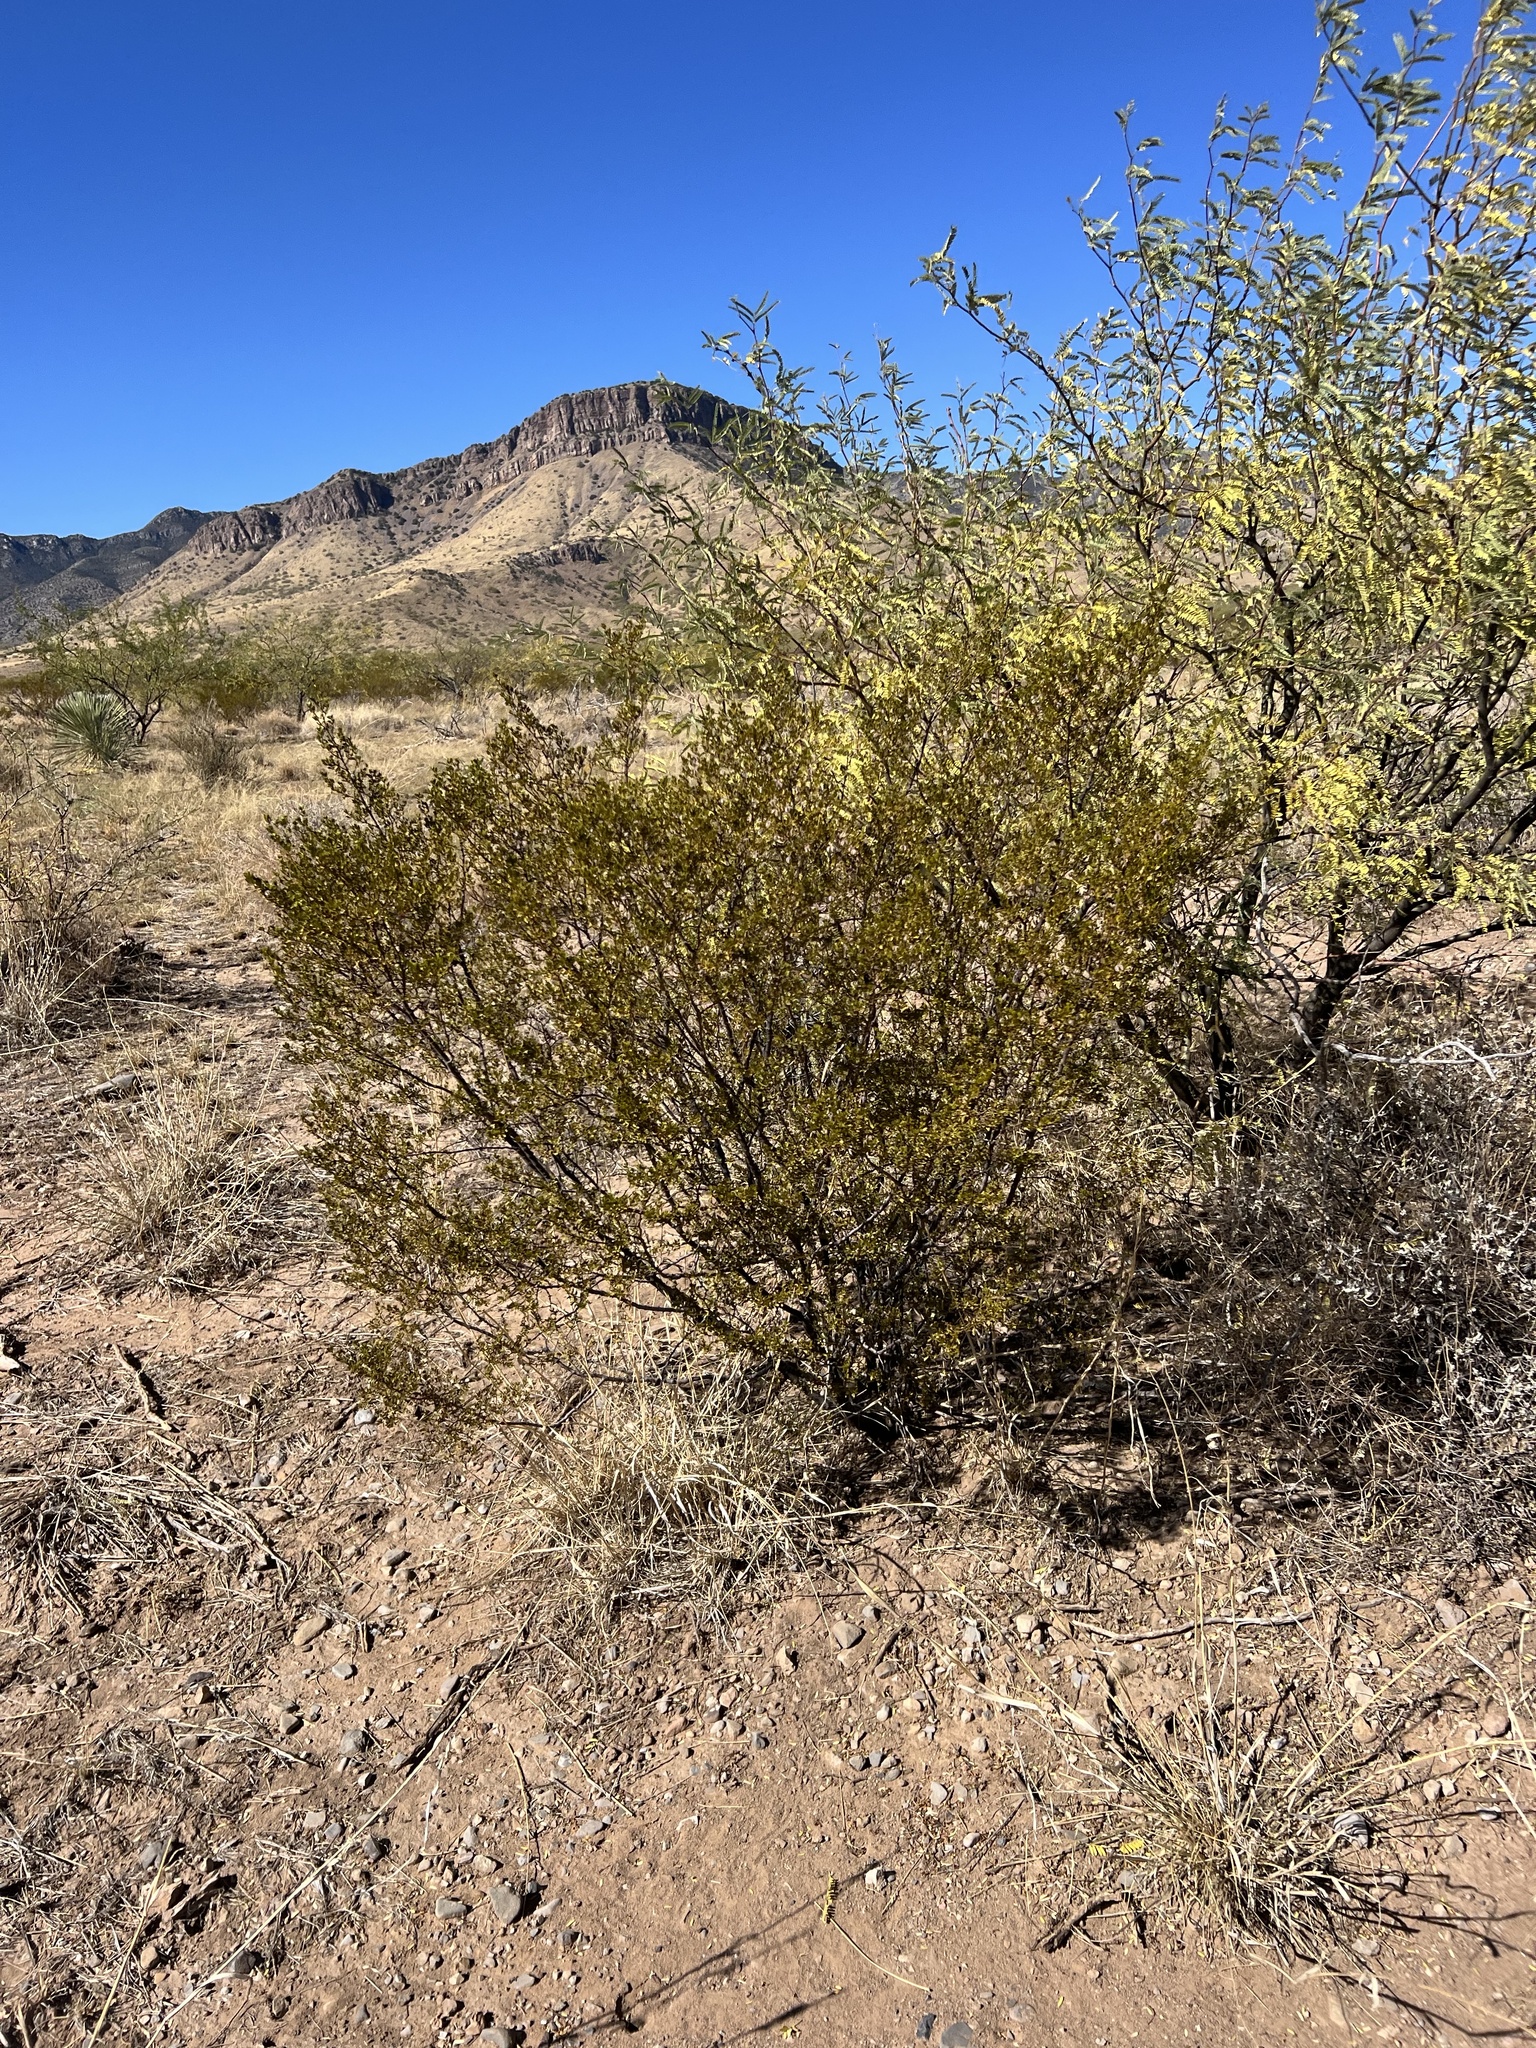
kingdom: Plantae
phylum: Tracheophyta
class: Magnoliopsida
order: Zygophyllales
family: Zygophyllaceae
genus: Larrea
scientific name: Larrea tridentata
